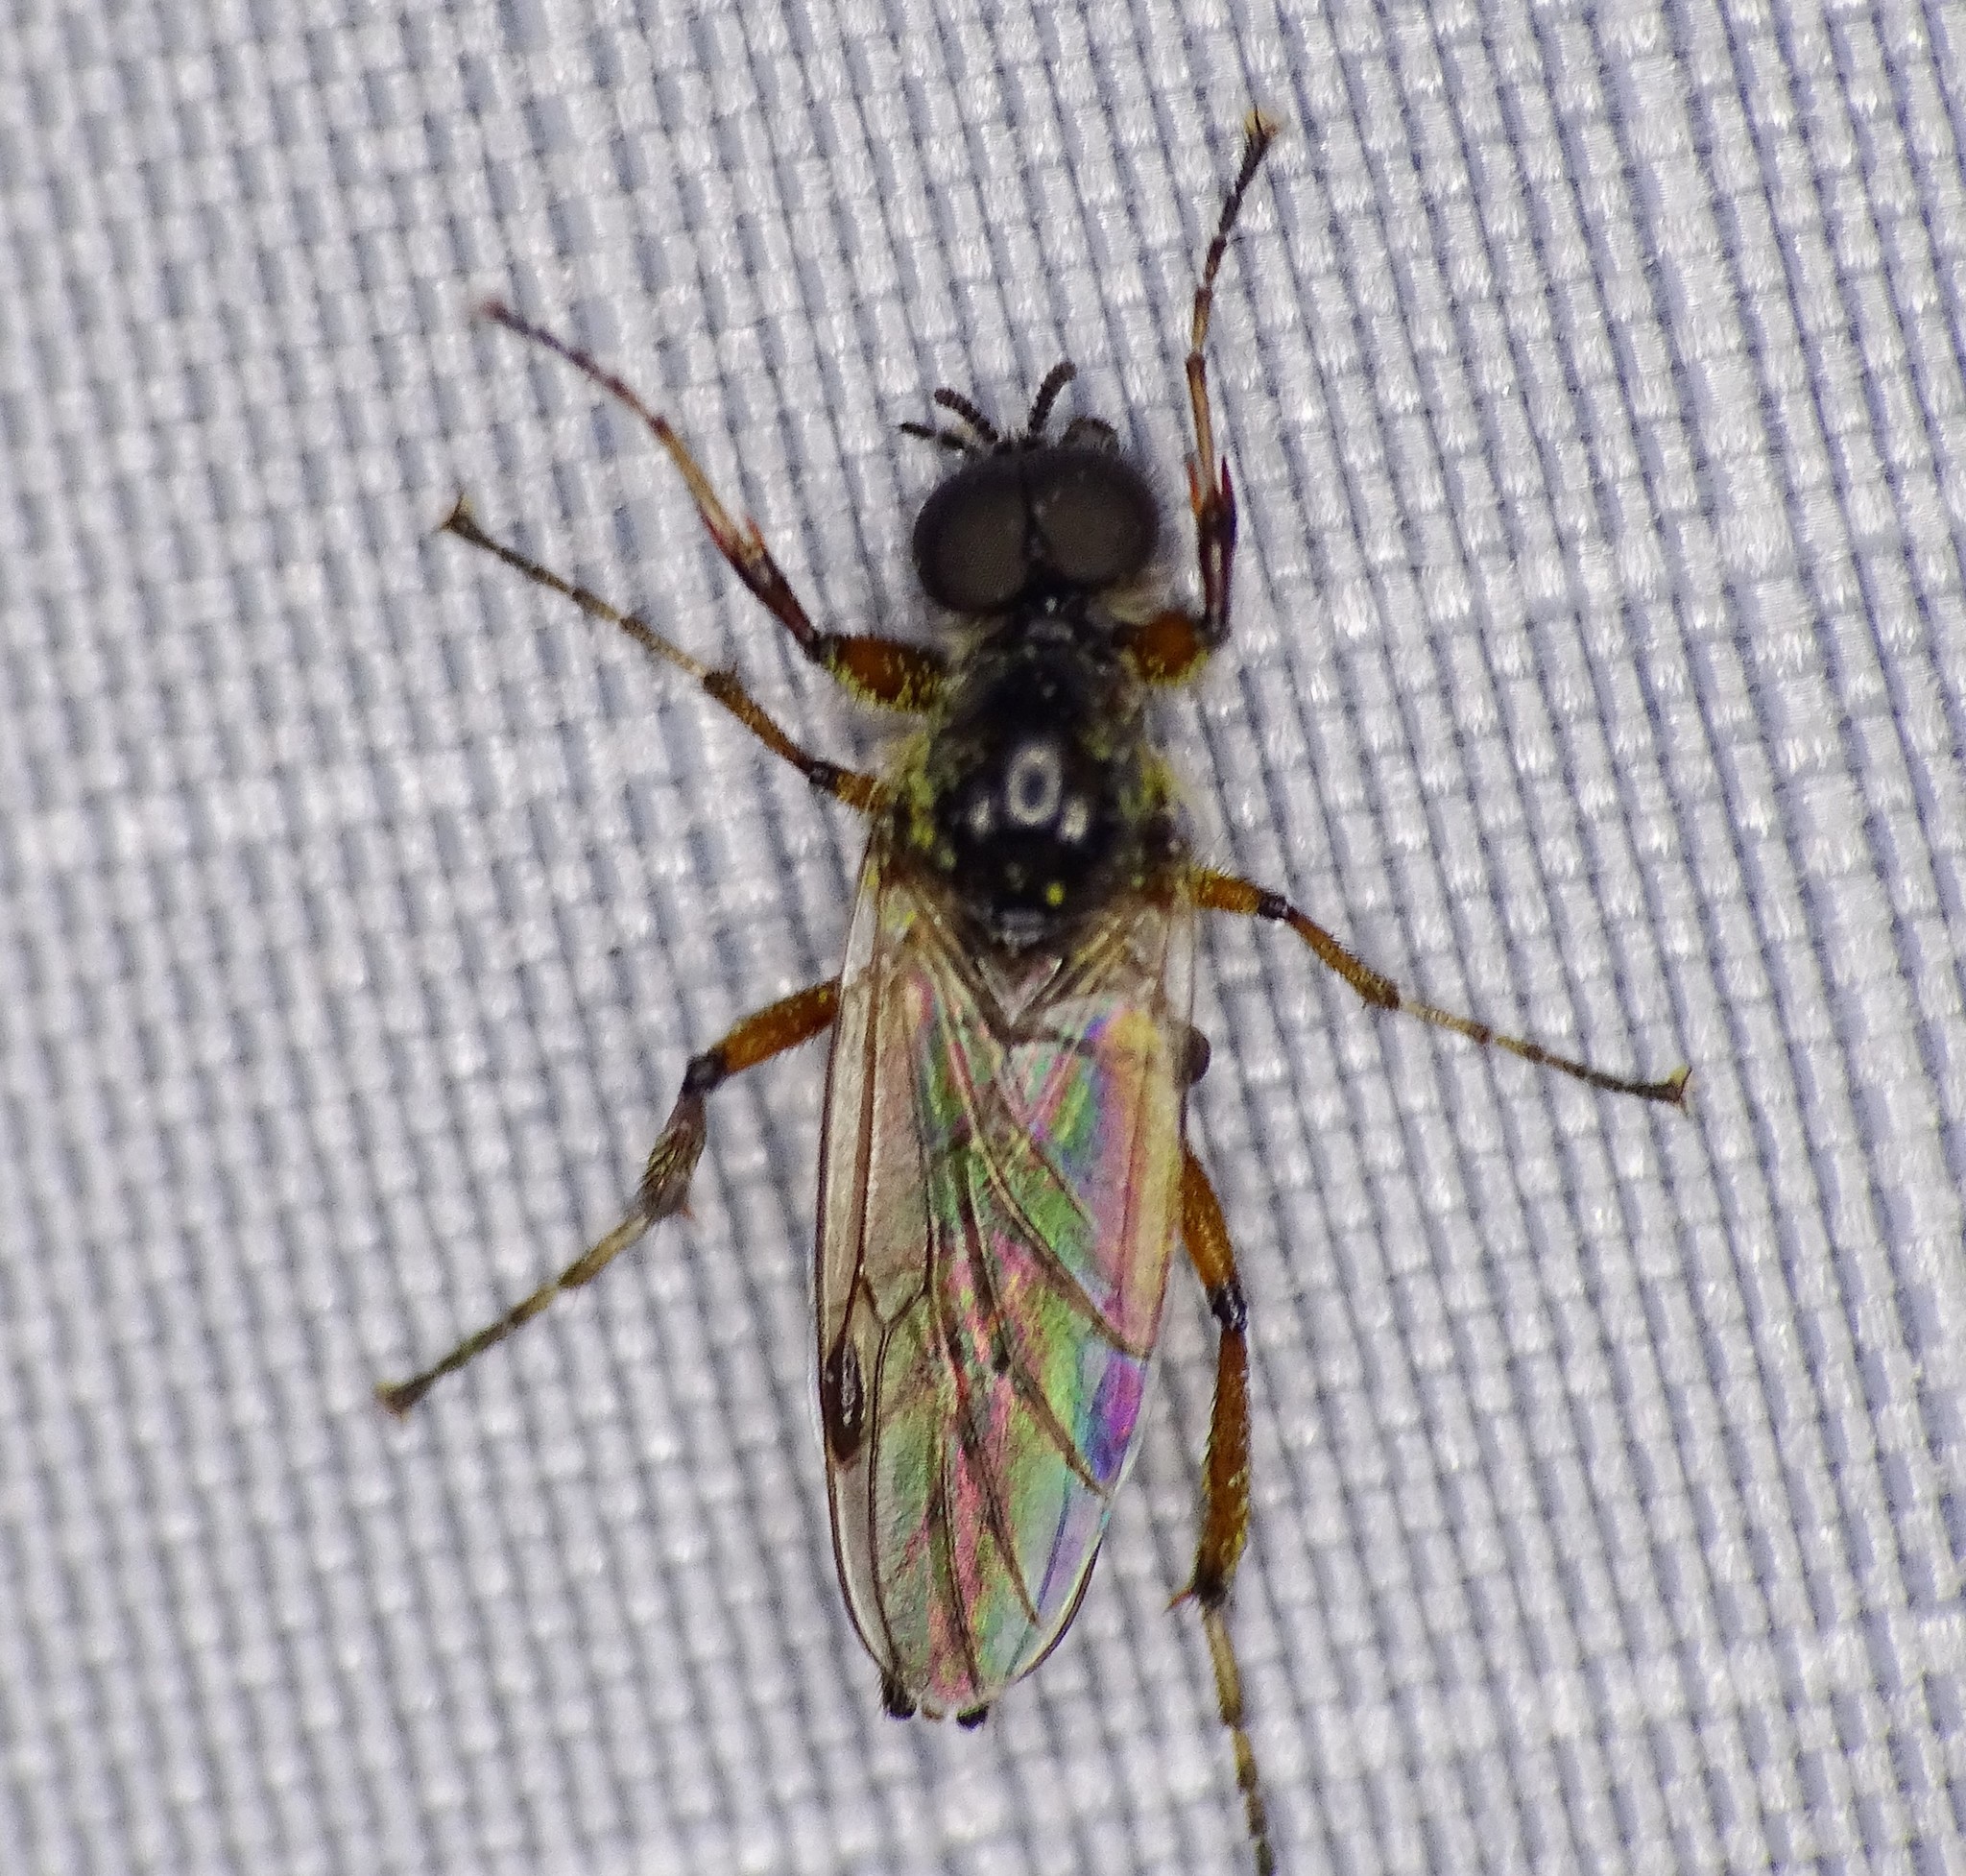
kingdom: Animalia
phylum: Arthropoda
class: Insecta
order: Diptera
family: Bibionidae
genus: Bibio
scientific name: Bibio articulatus
